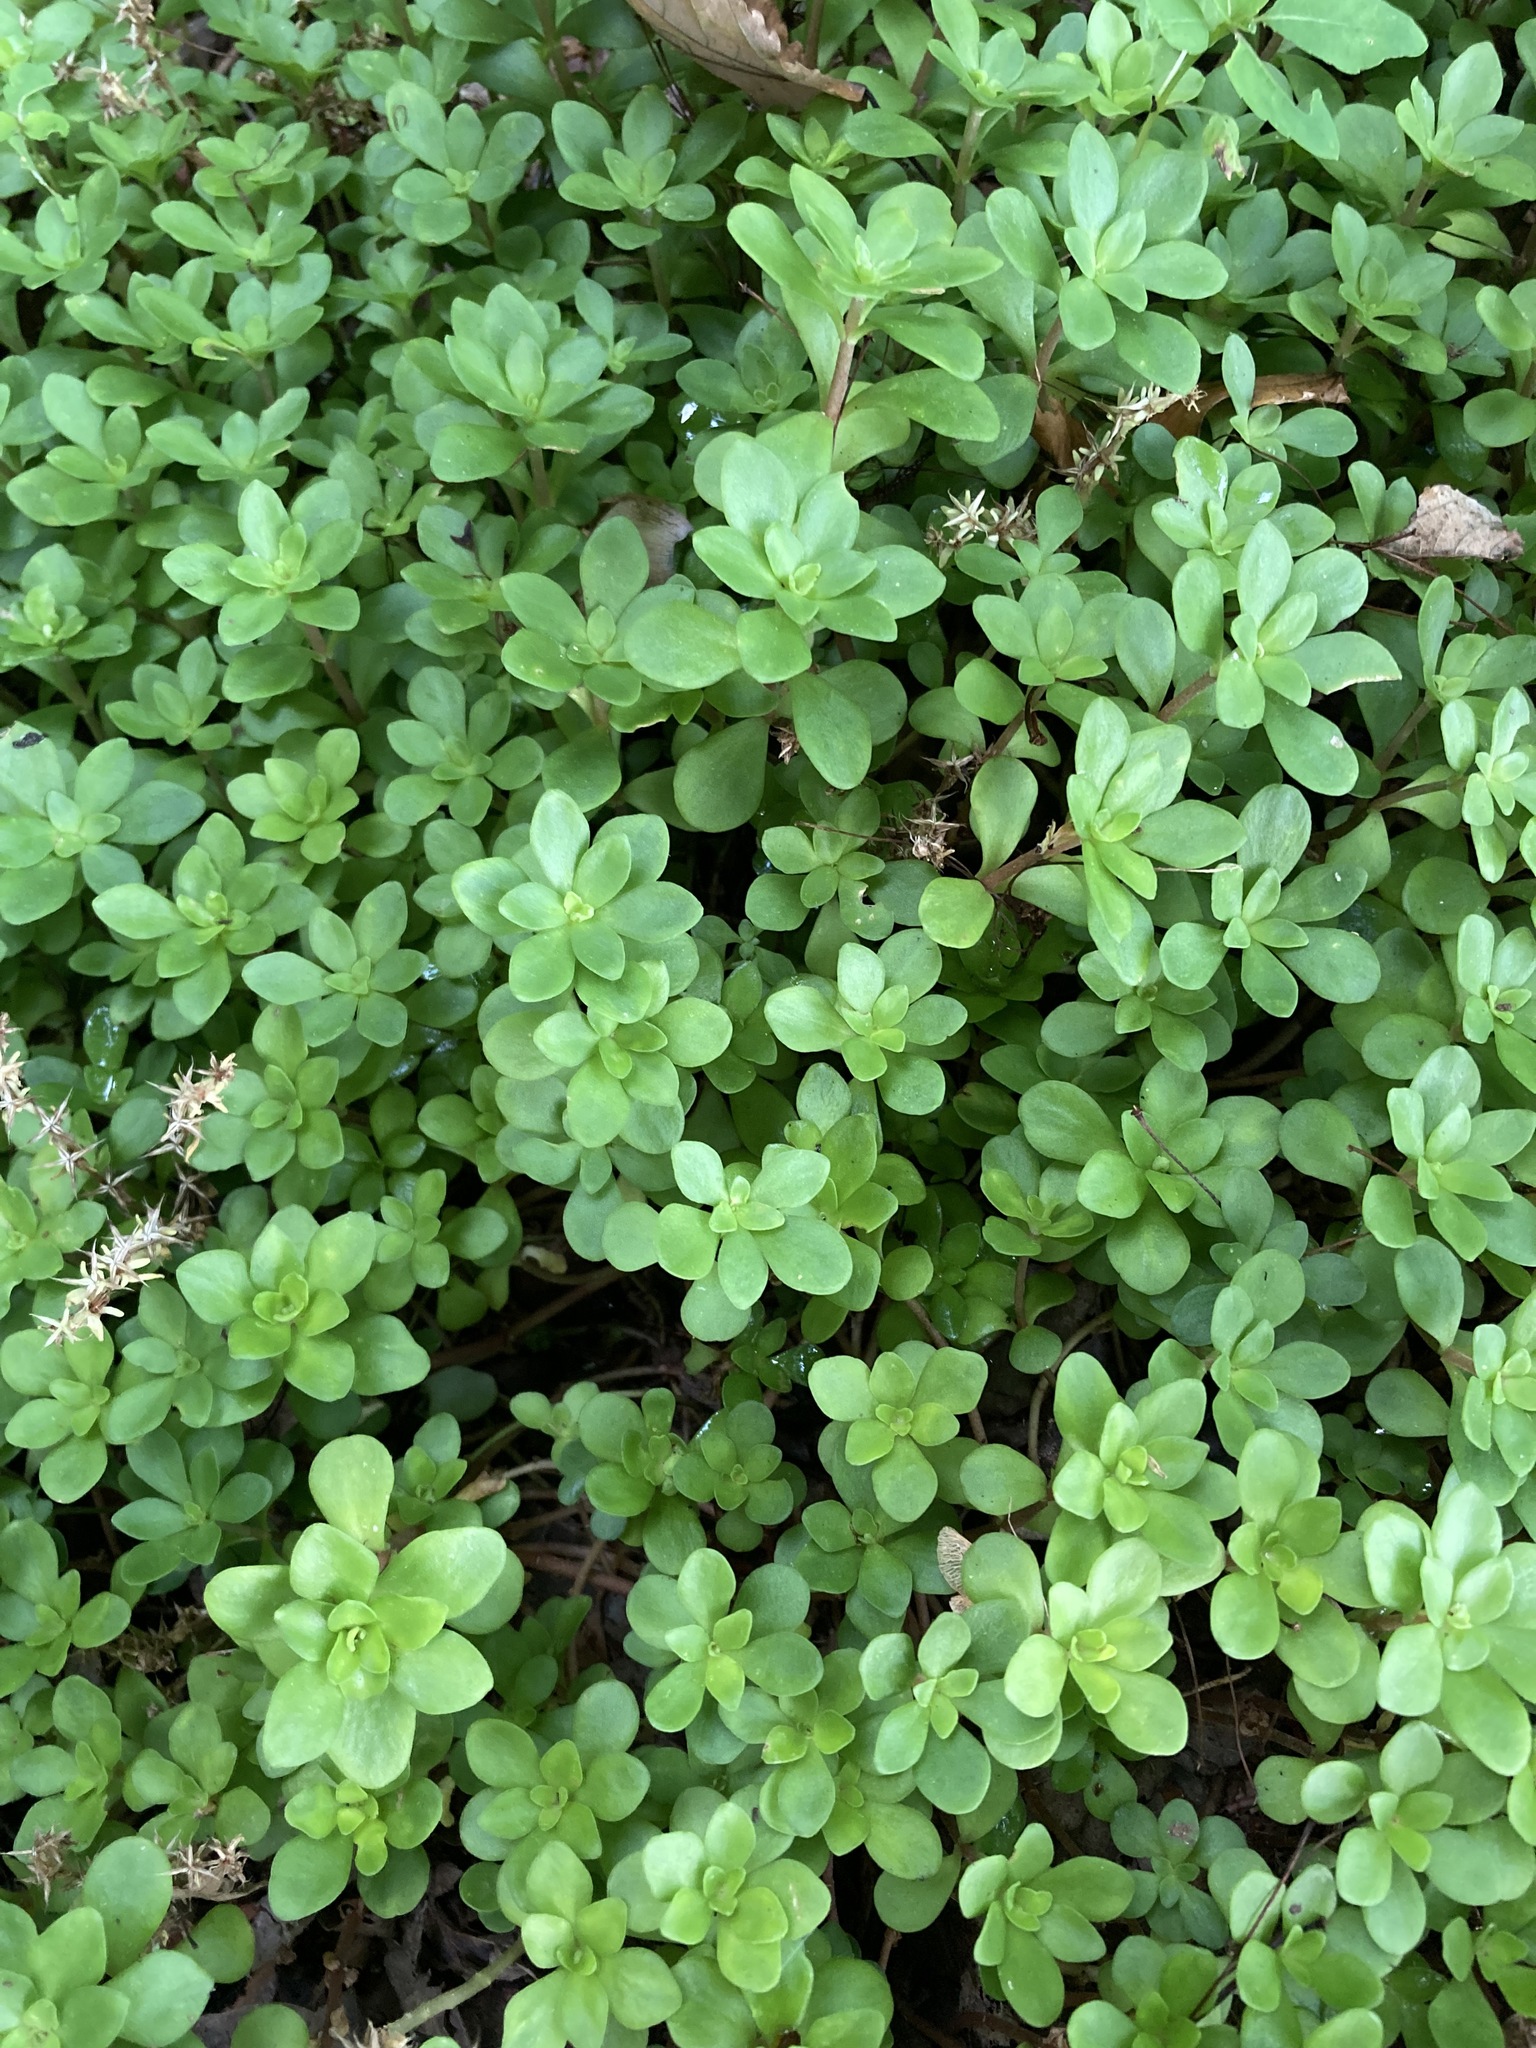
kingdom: Plantae
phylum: Tracheophyta
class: Magnoliopsida
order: Saxifragales
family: Crassulaceae
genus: Sedum
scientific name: Sedum ternatum
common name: Wild stonecrop
